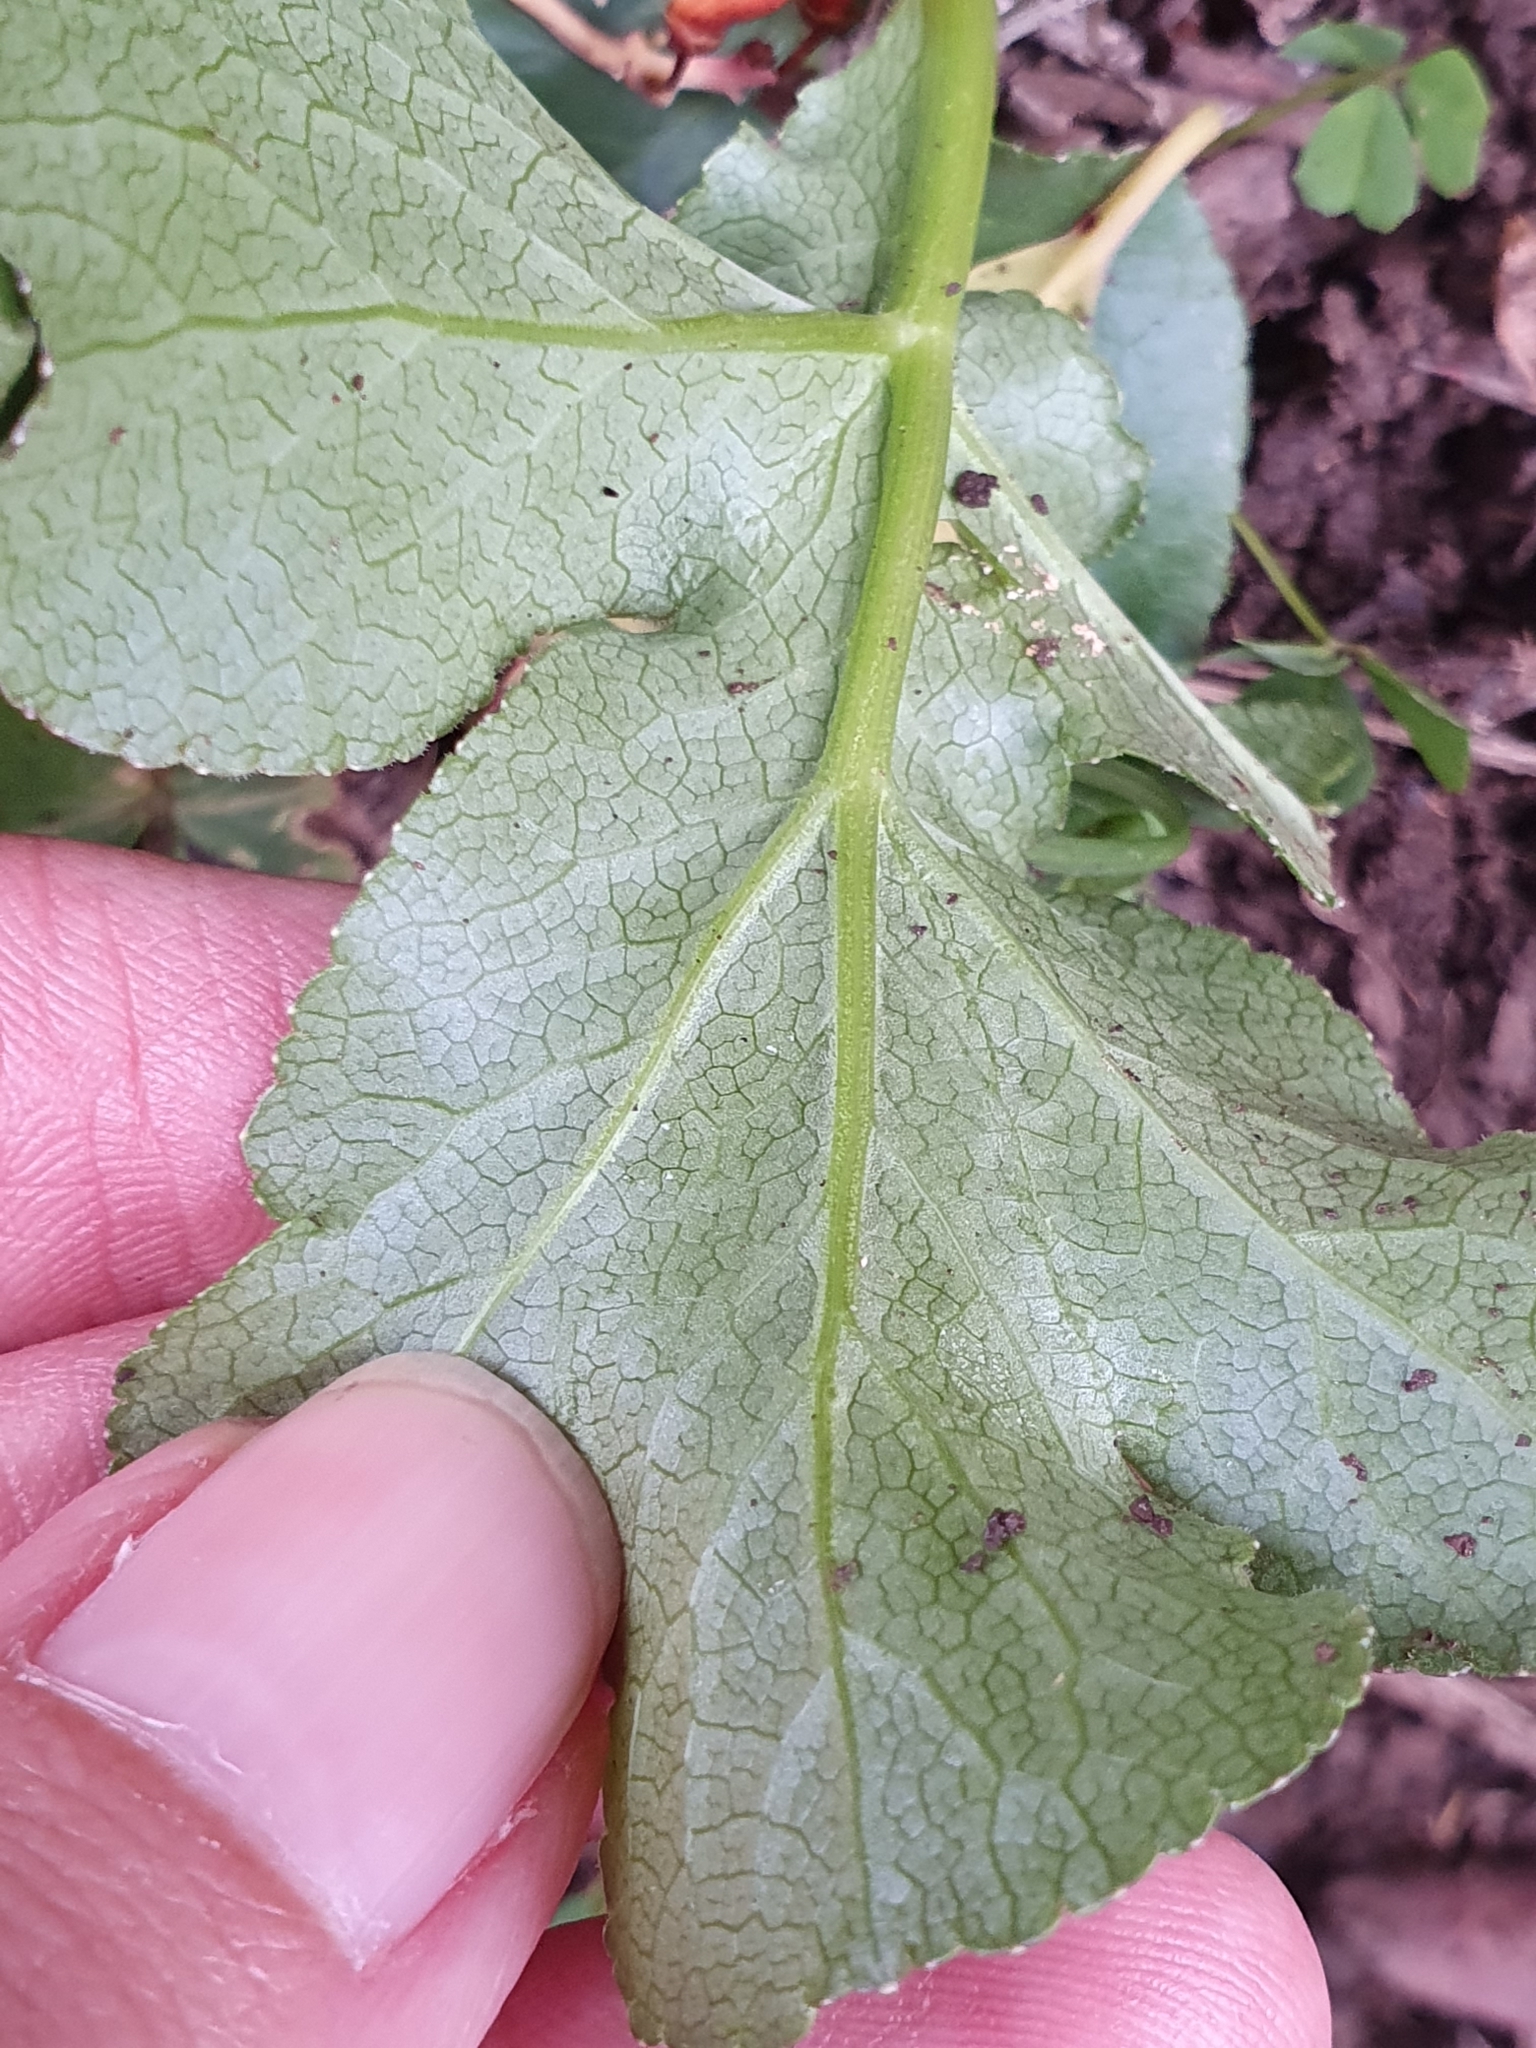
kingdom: Plantae
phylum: Tracheophyta
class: Magnoliopsida
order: Apiales
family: Apiaceae
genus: Magydaris
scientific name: Magydaris pastinacea
